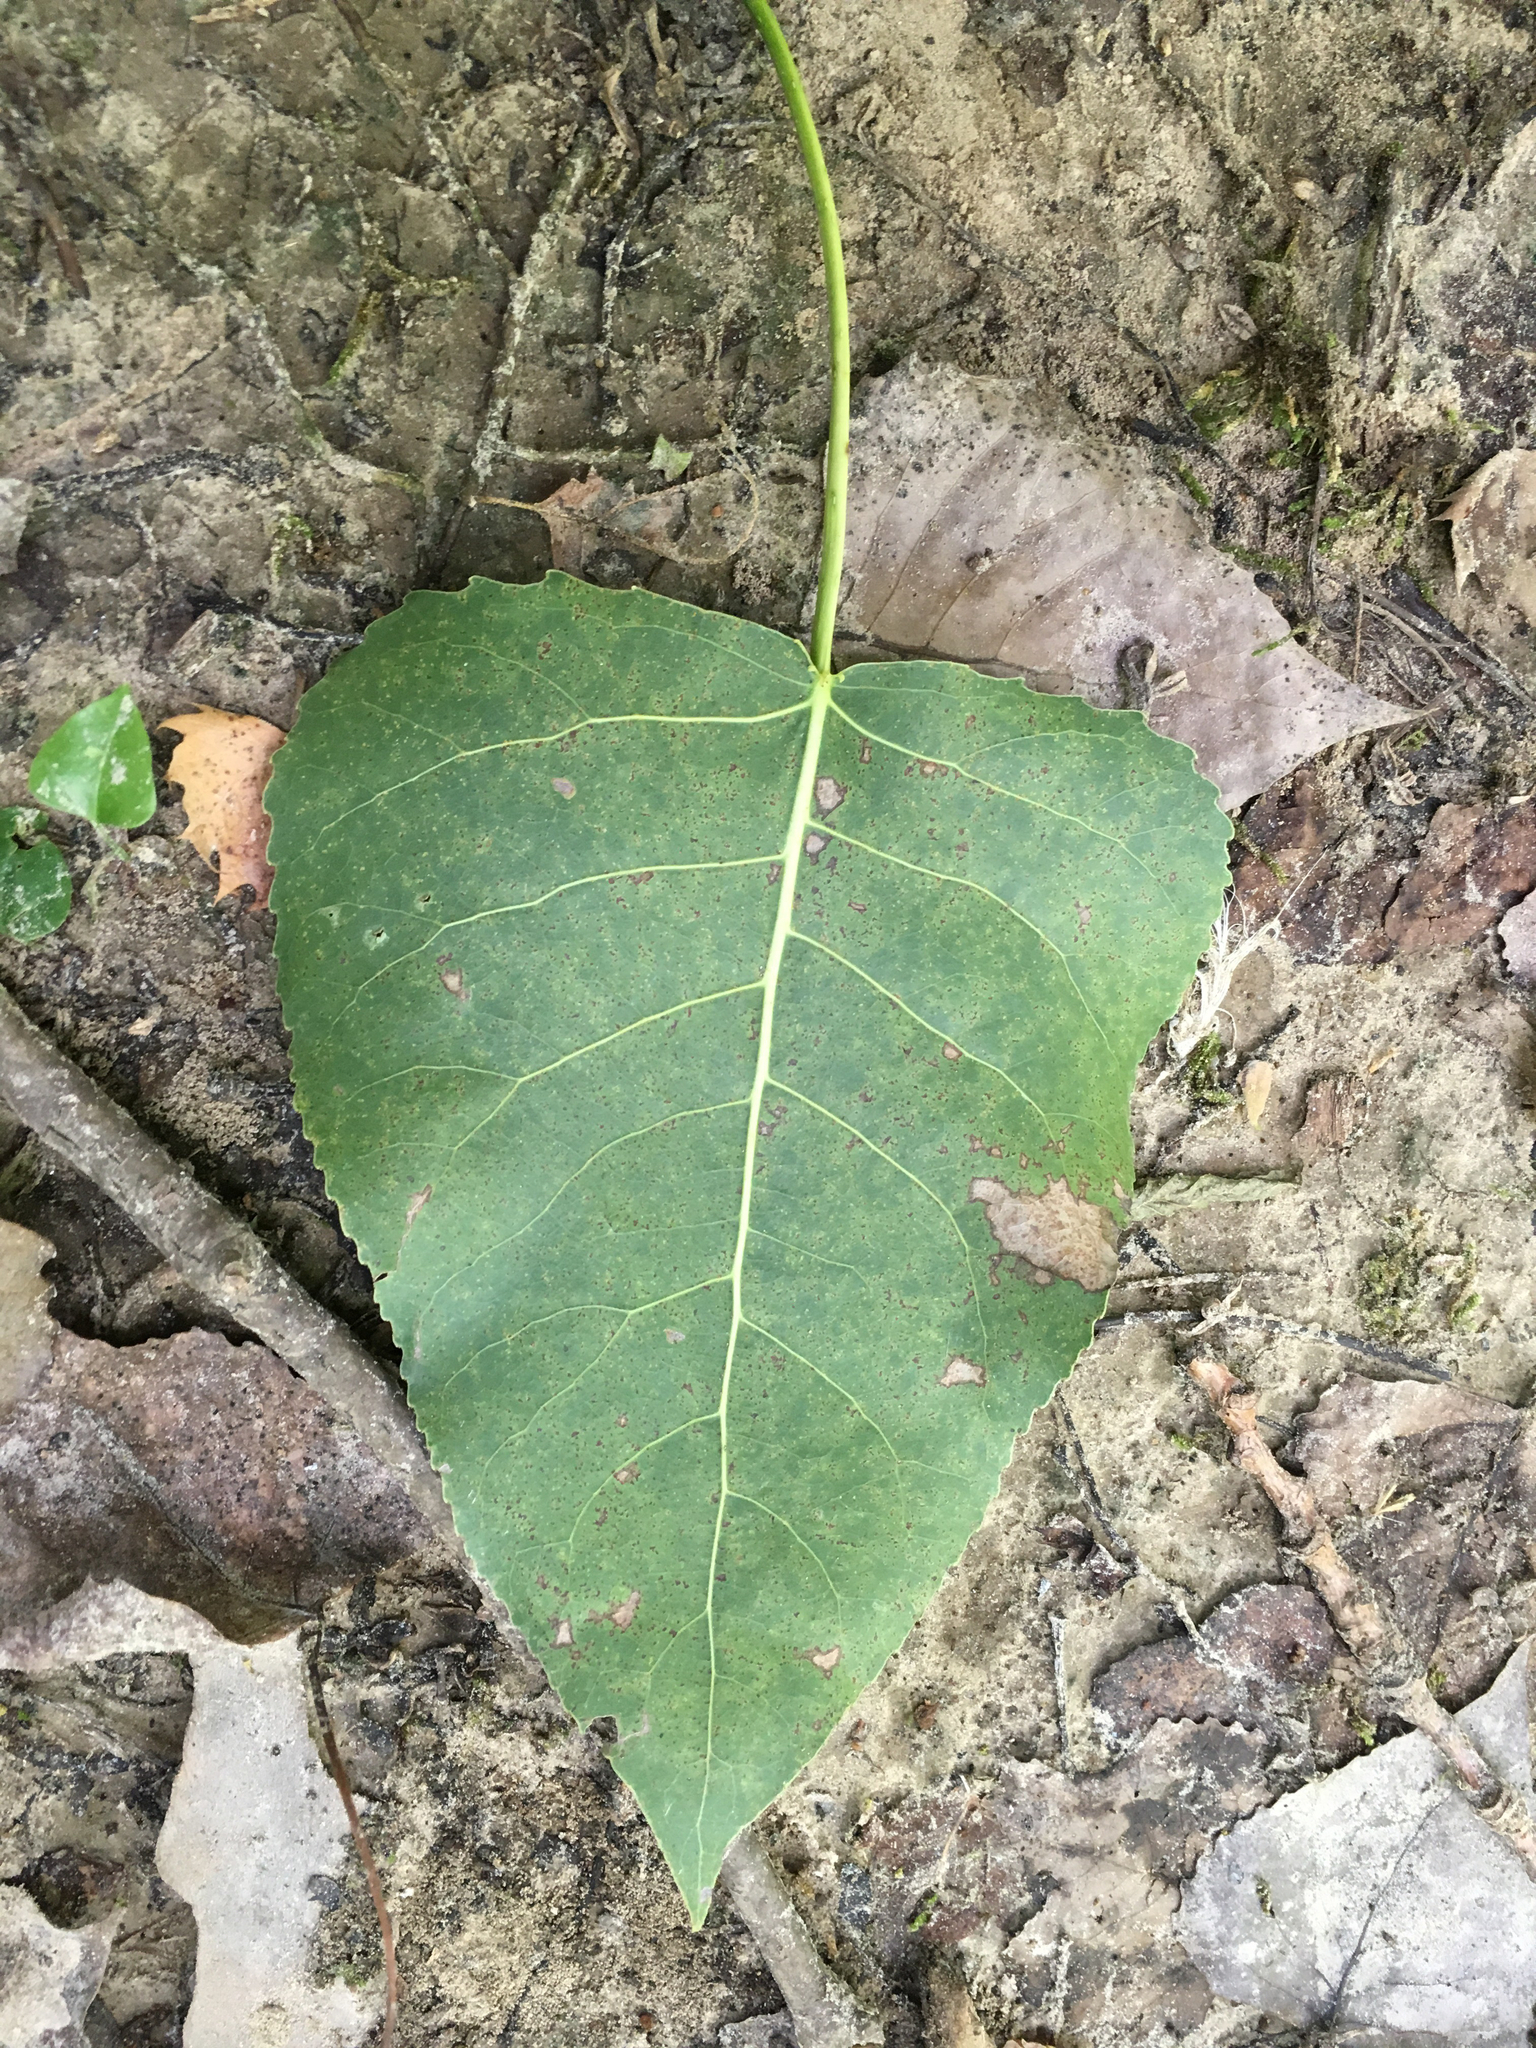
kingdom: Plantae
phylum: Tracheophyta
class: Magnoliopsida
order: Malpighiales
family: Salicaceae
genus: Populus
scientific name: Populus deltoides
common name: Eastern cottonwood
